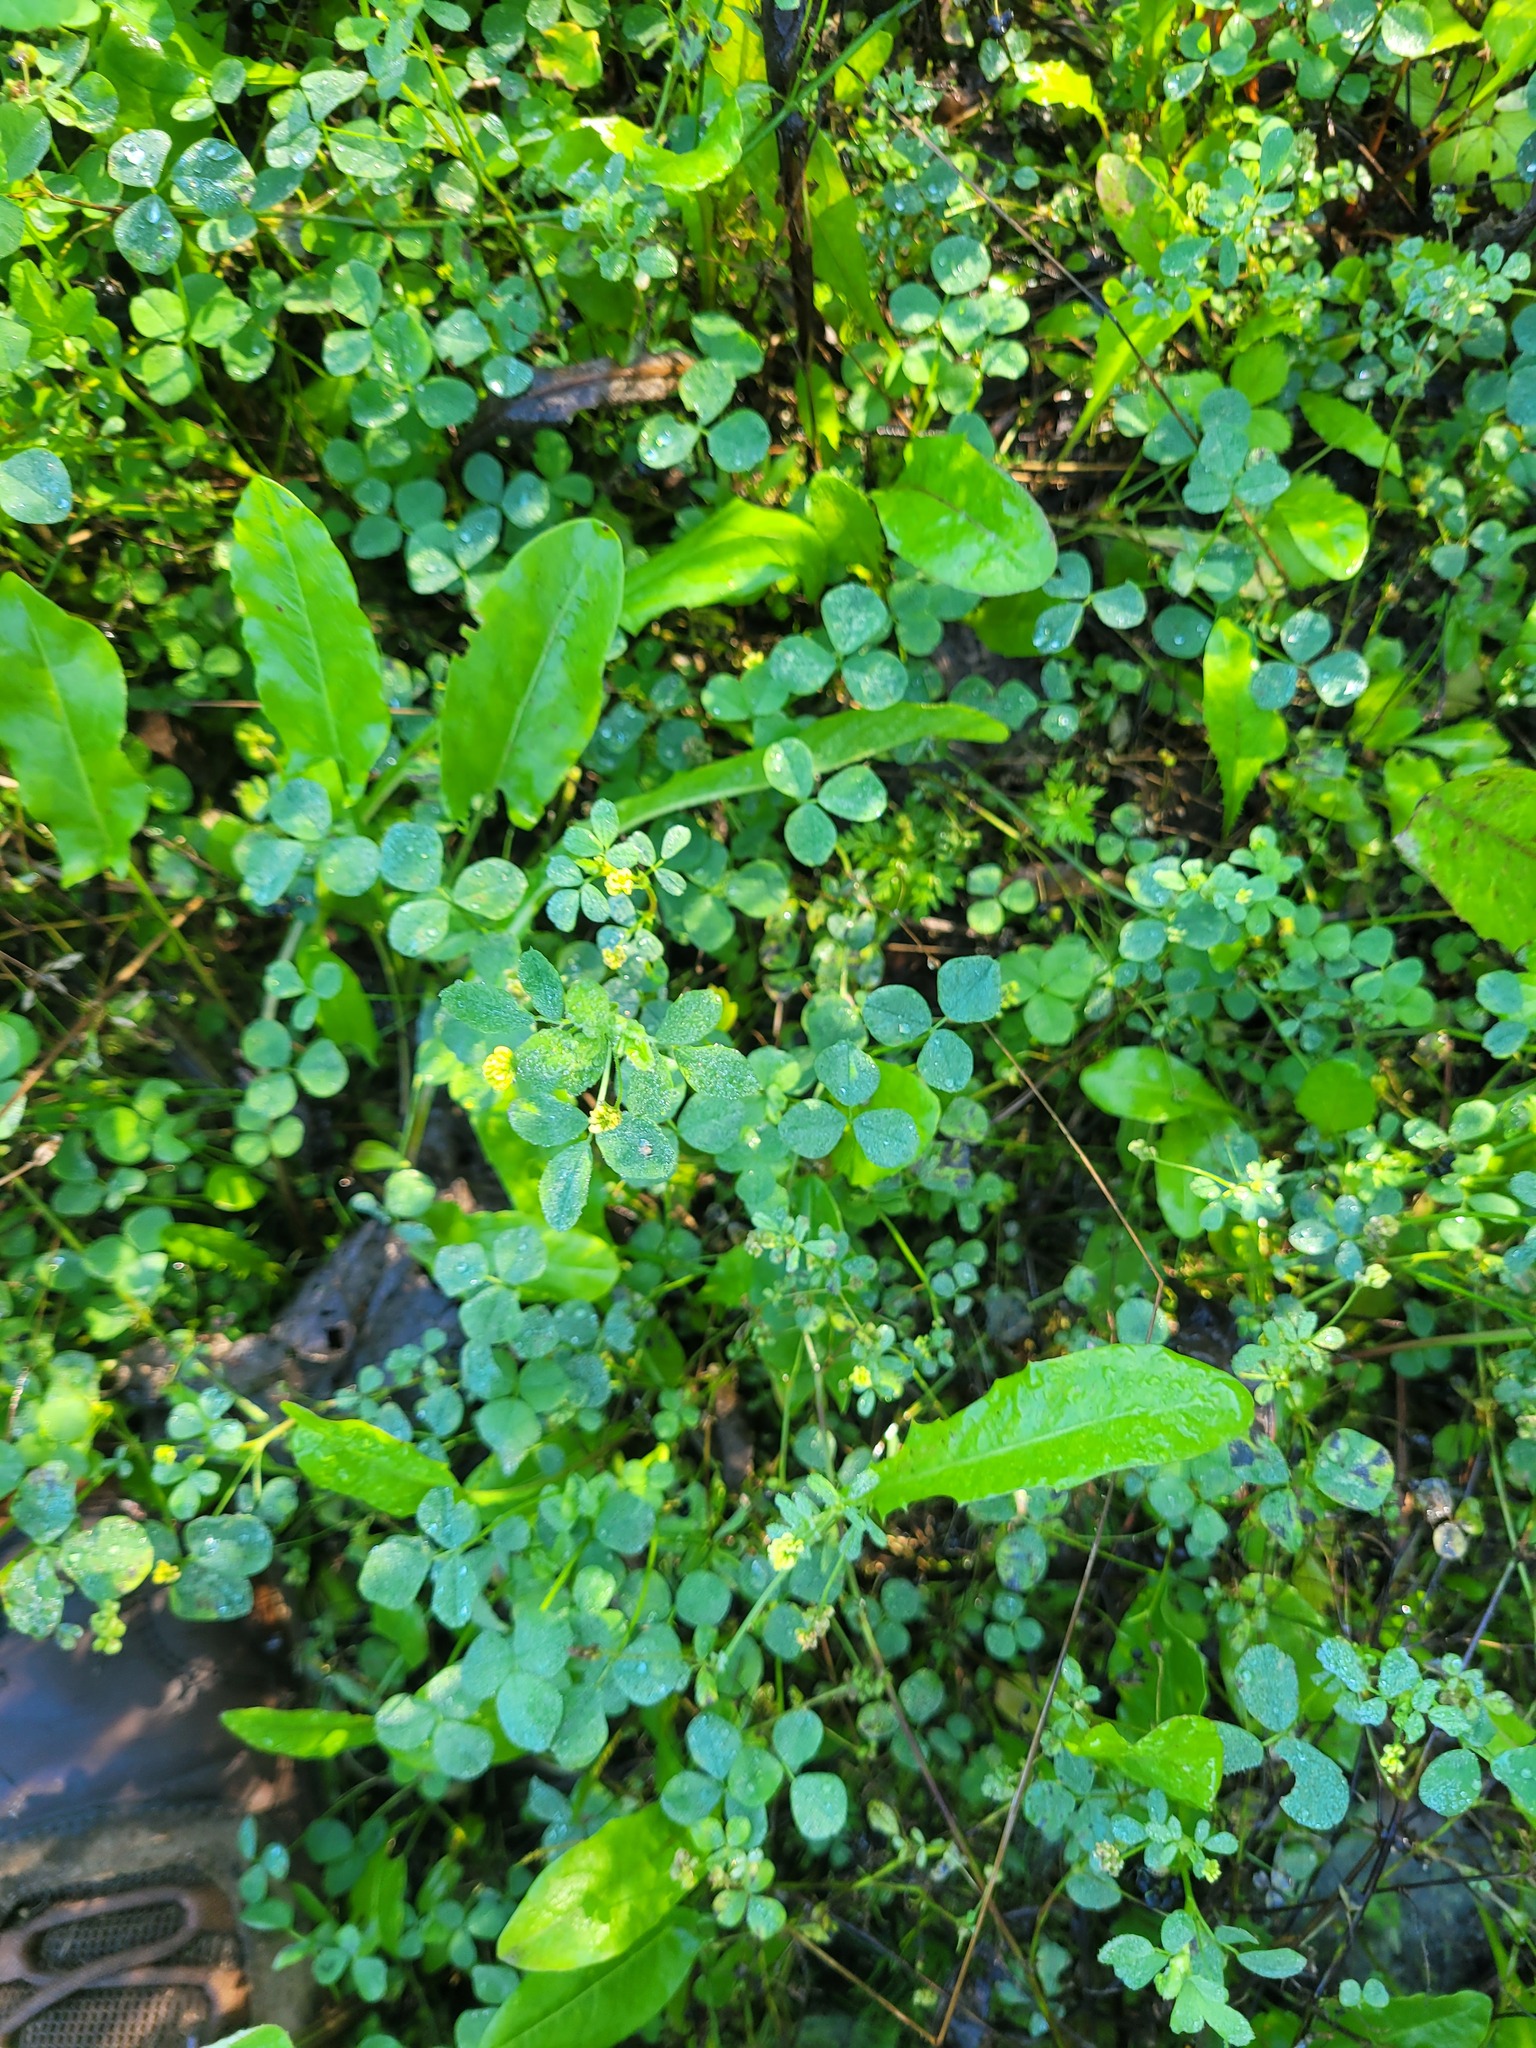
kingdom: Plantae
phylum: Tracheophyta
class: Magnoliopsida
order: Fabales
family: Fabaceae
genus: Medicago
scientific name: Medicago lupulina
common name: Black medick
